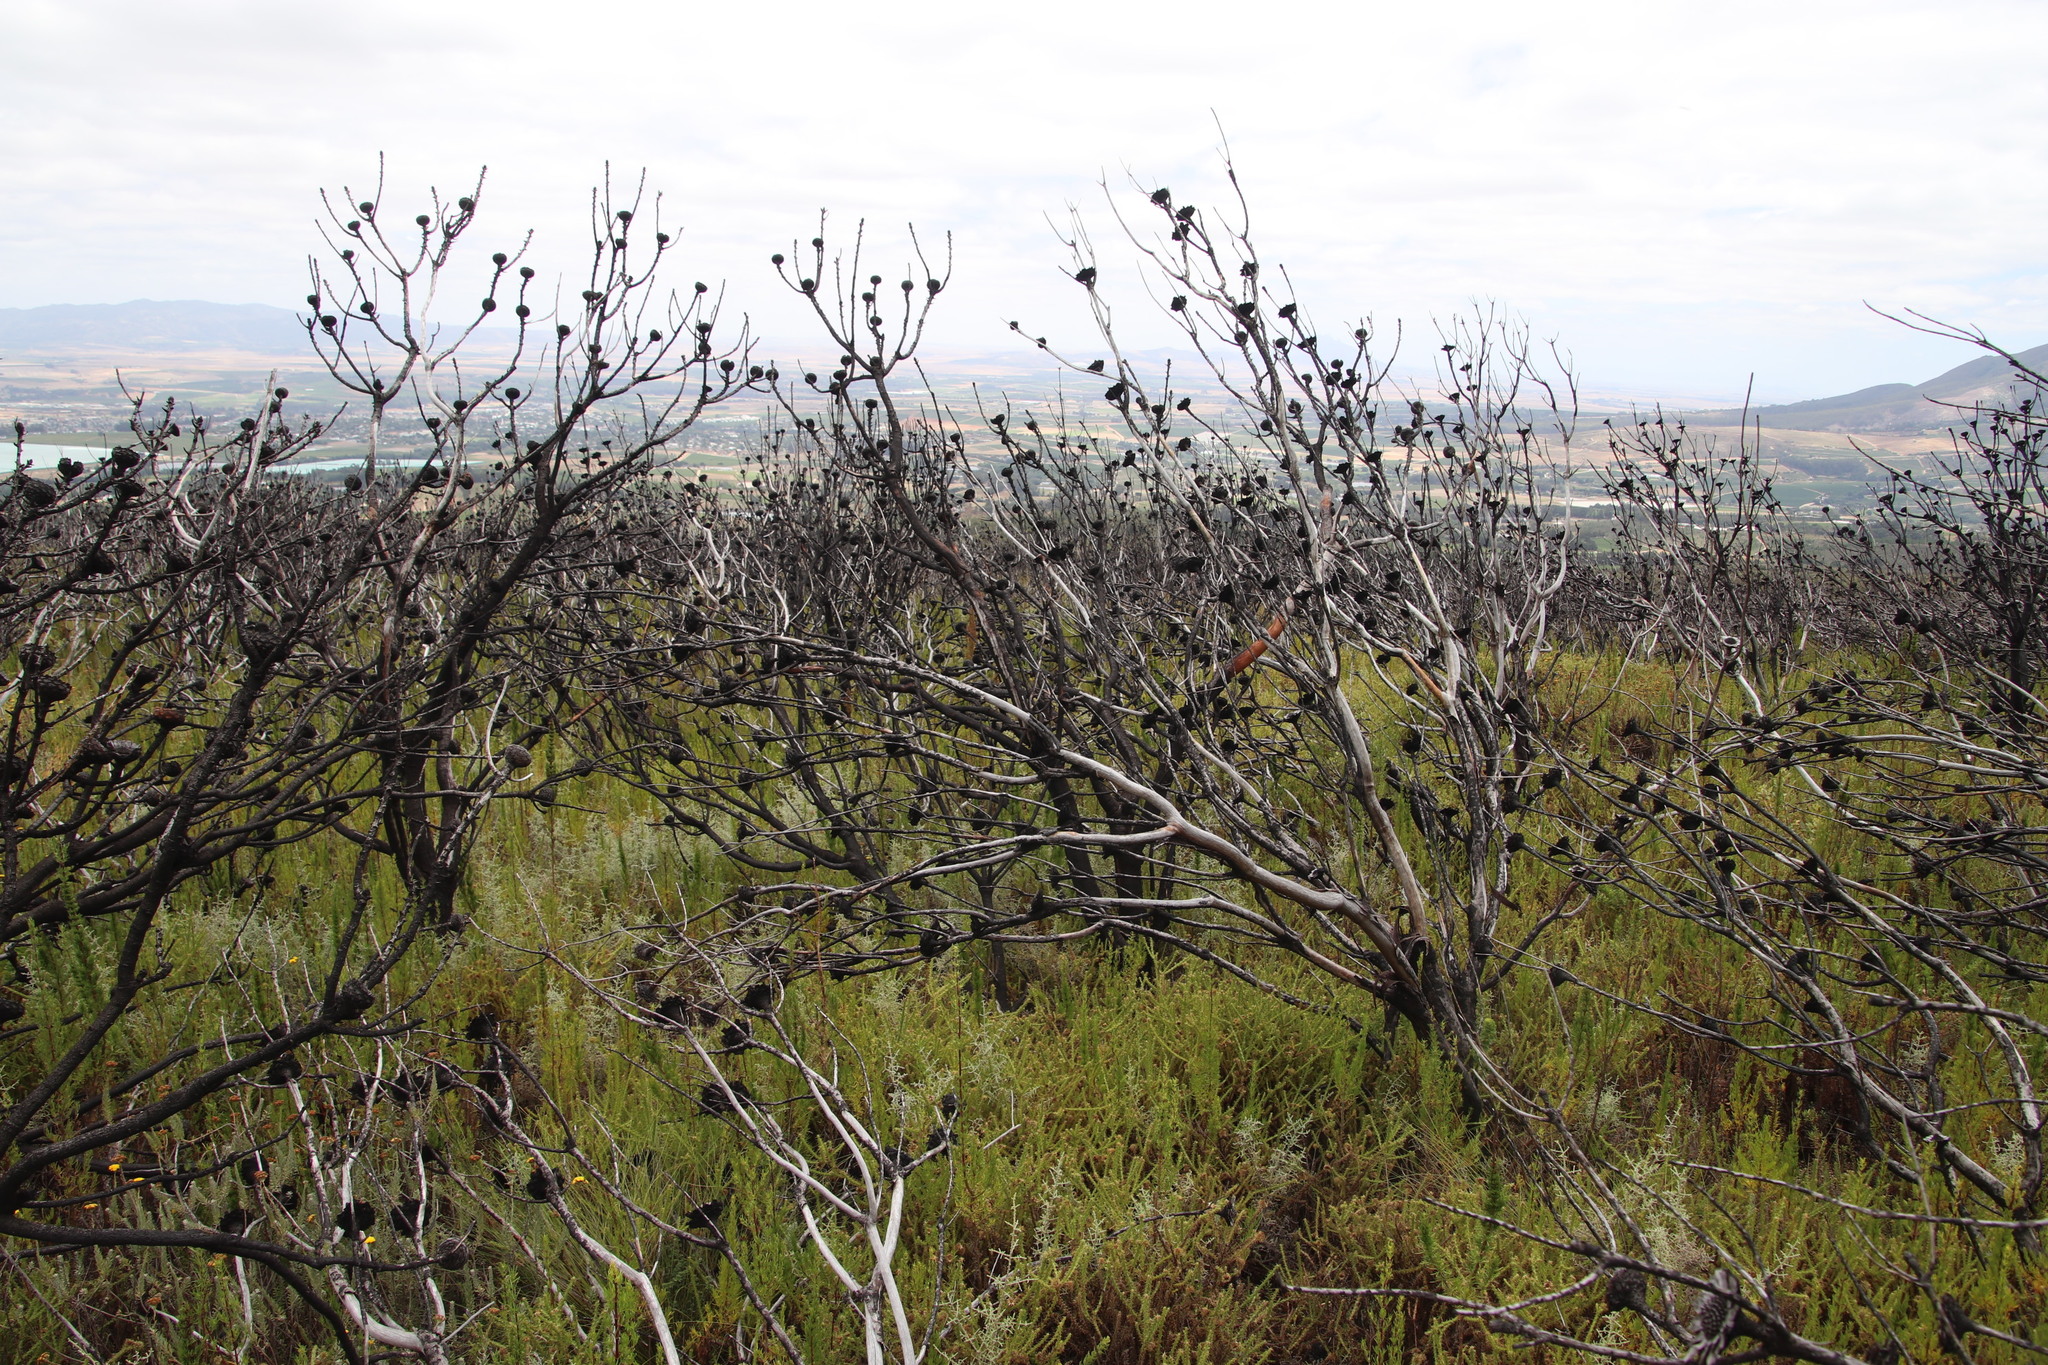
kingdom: Plantae
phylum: Tracheophyta
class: Magnoliopsida
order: Proteales
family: Proteaceae
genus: Protea
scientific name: Protea repens
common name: Sugarbush
